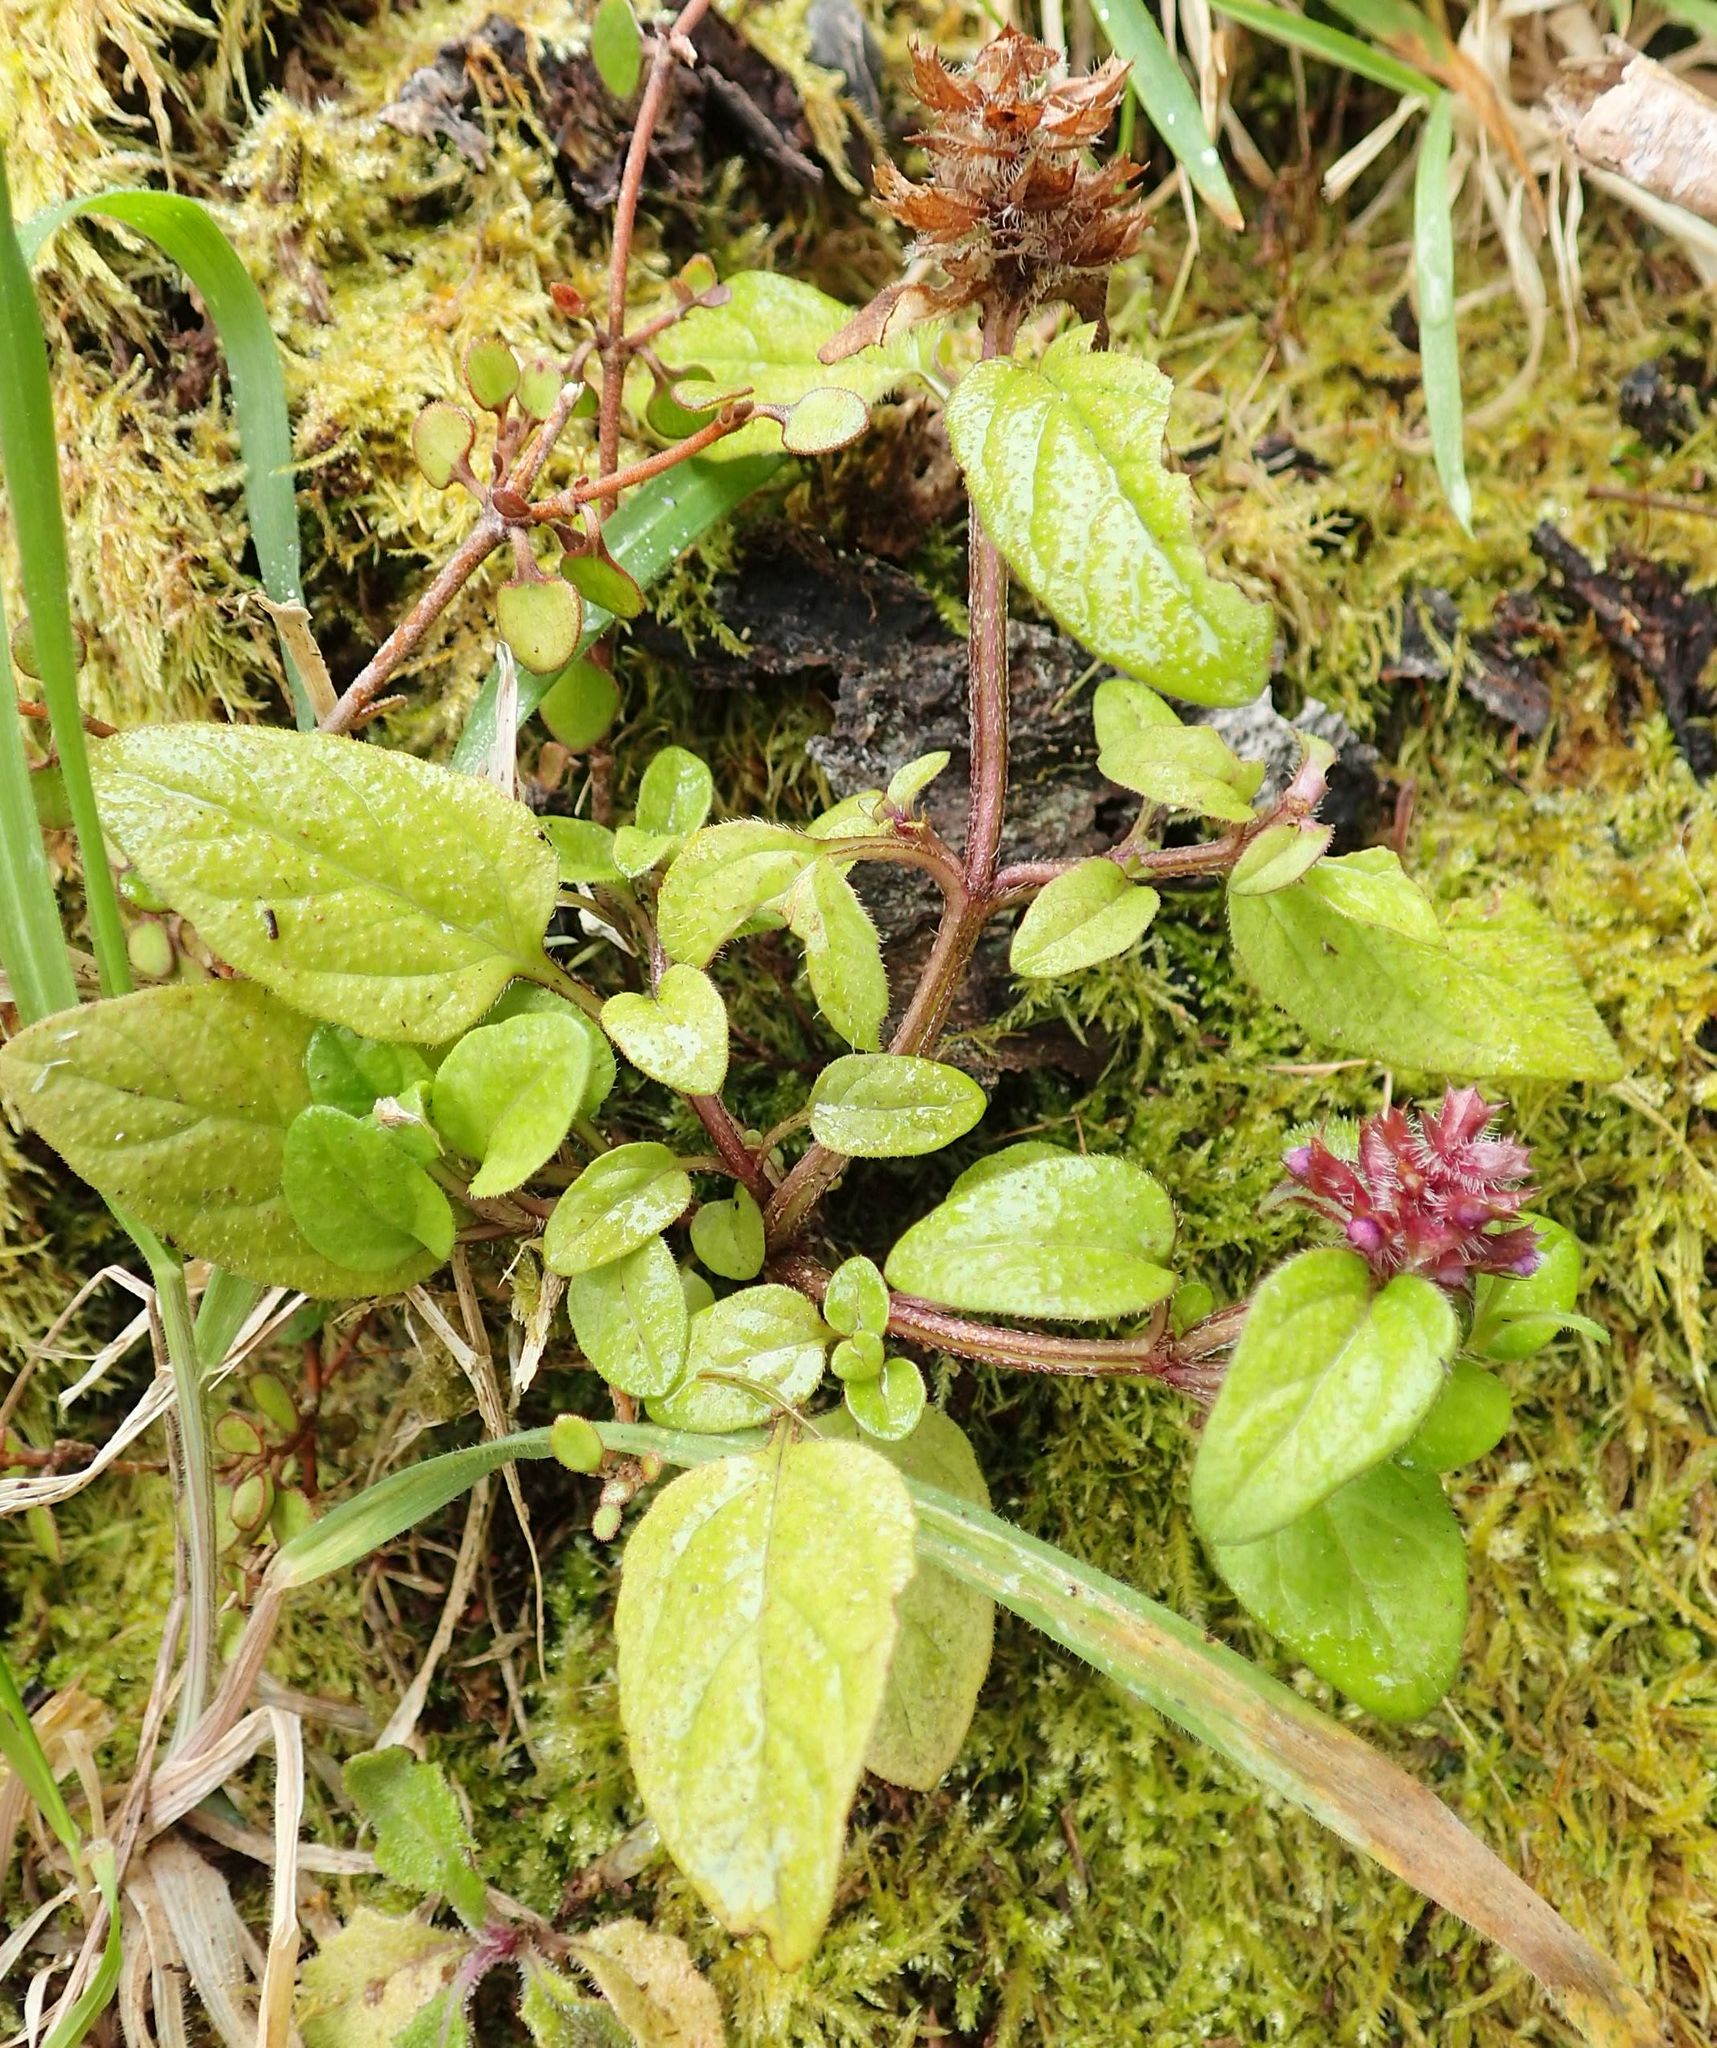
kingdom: Plantae
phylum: Tracheophyta
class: Magnoliopsida
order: Lamiales
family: Lamiaceae
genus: Prunella
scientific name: Prunella vulgaris
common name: Heal-all
